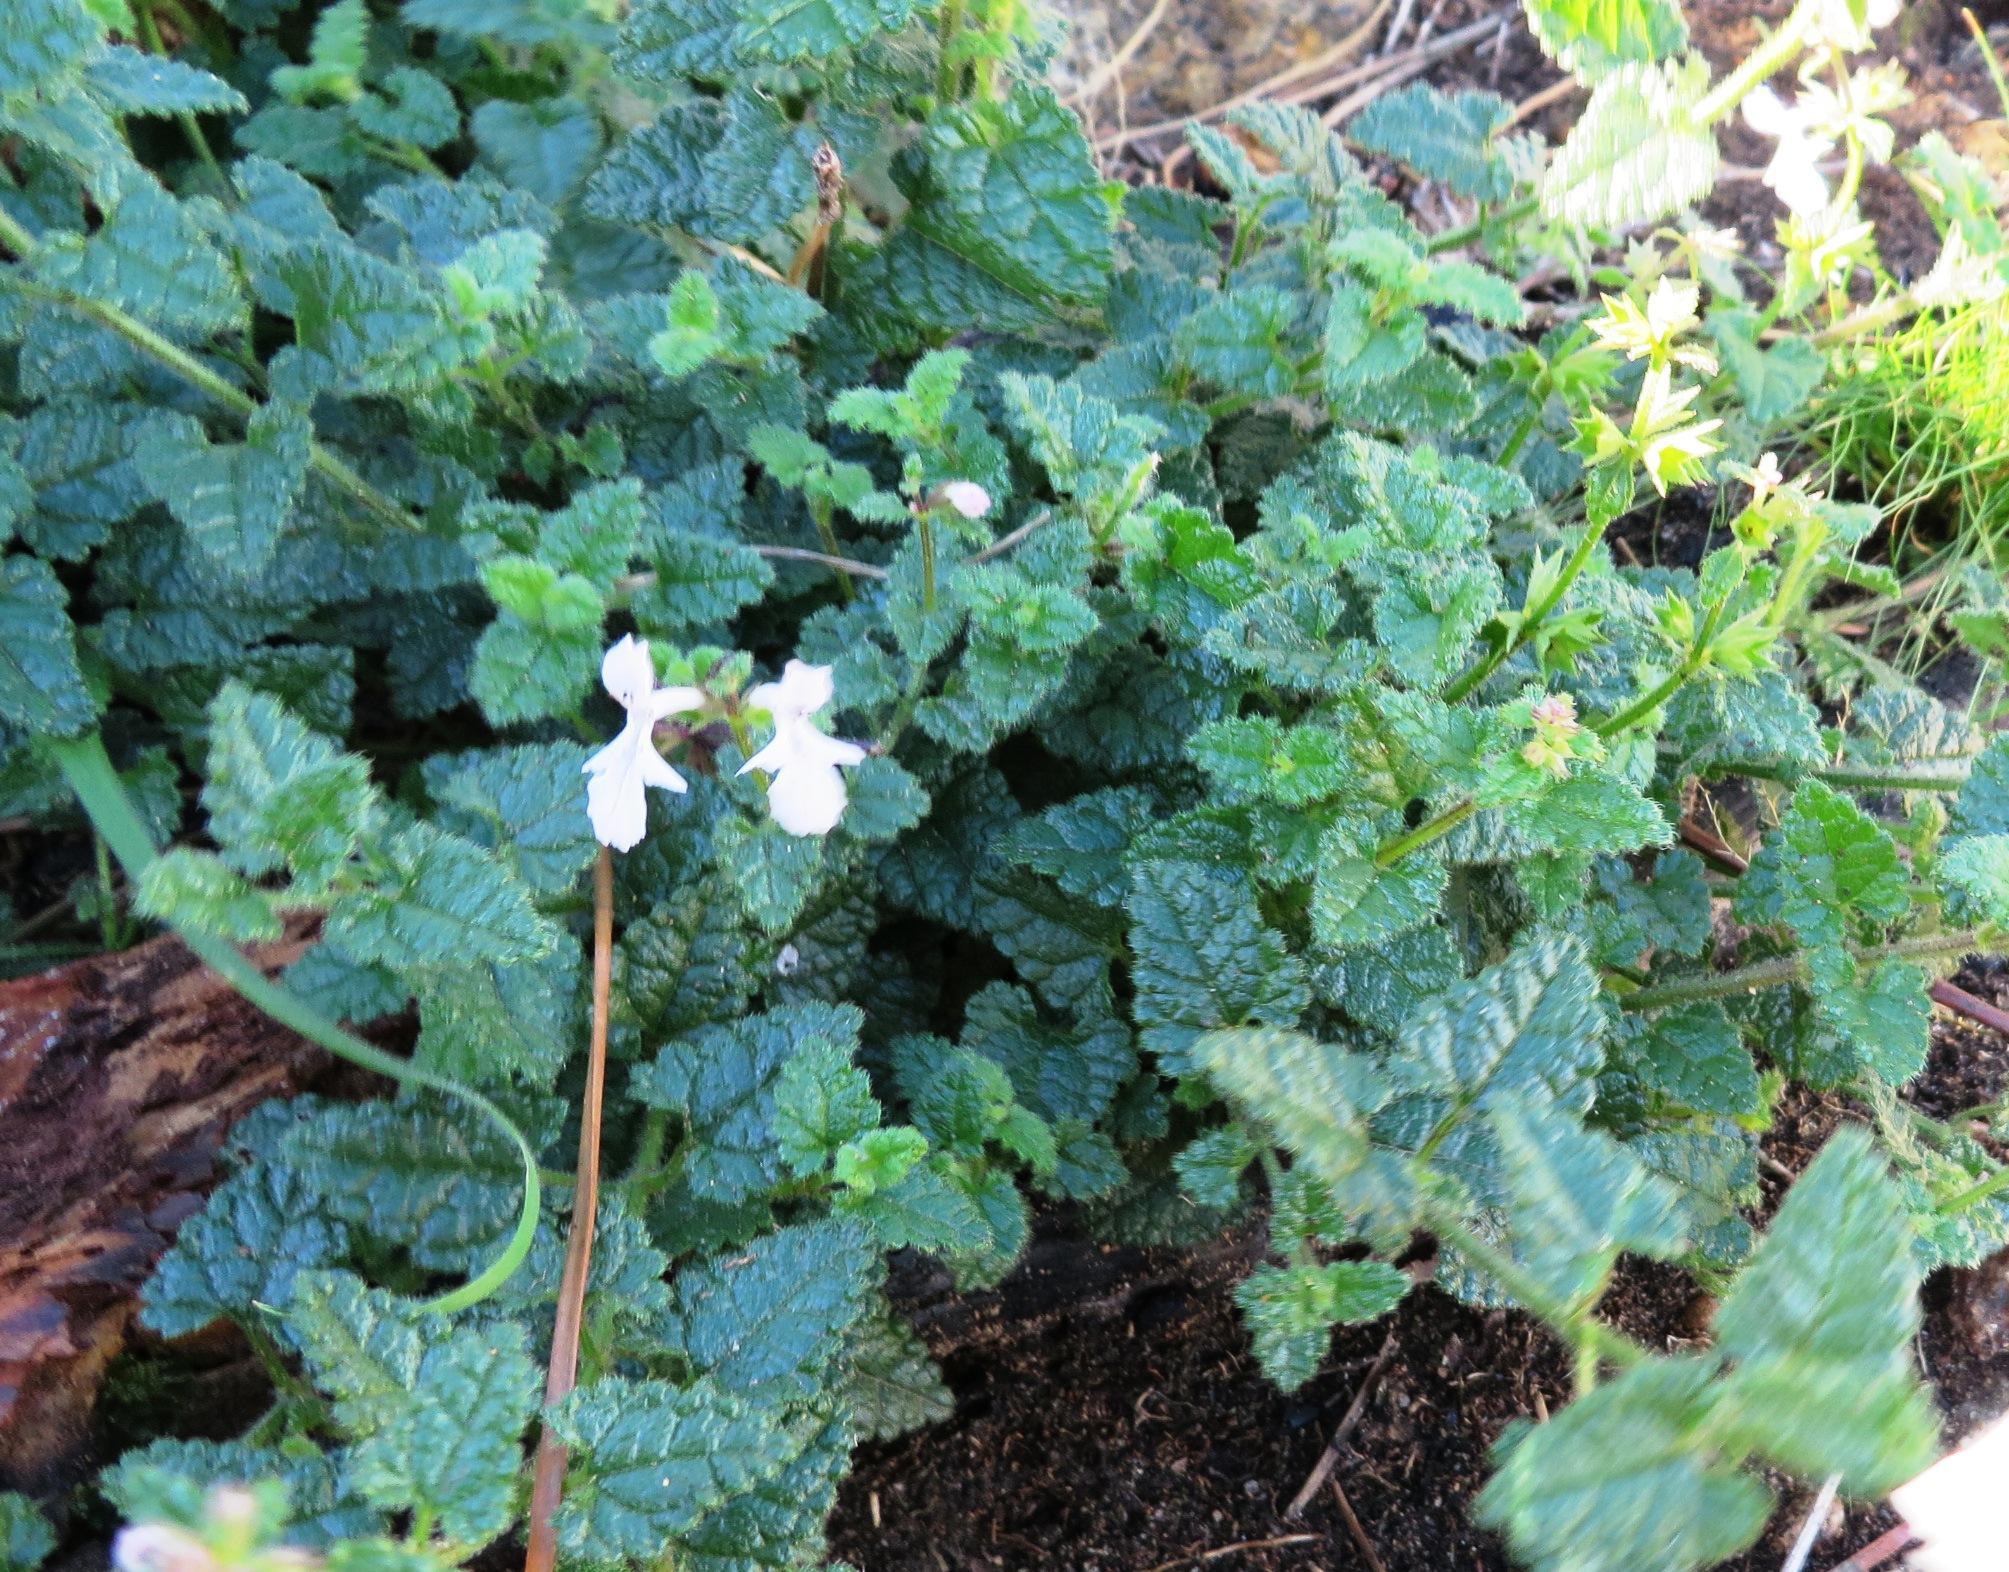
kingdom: Plantae
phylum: Tracheophyta
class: Magnoliopsida
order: Lamiales
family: Lamiaceae
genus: Stachys
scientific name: Stachys aethiopica
